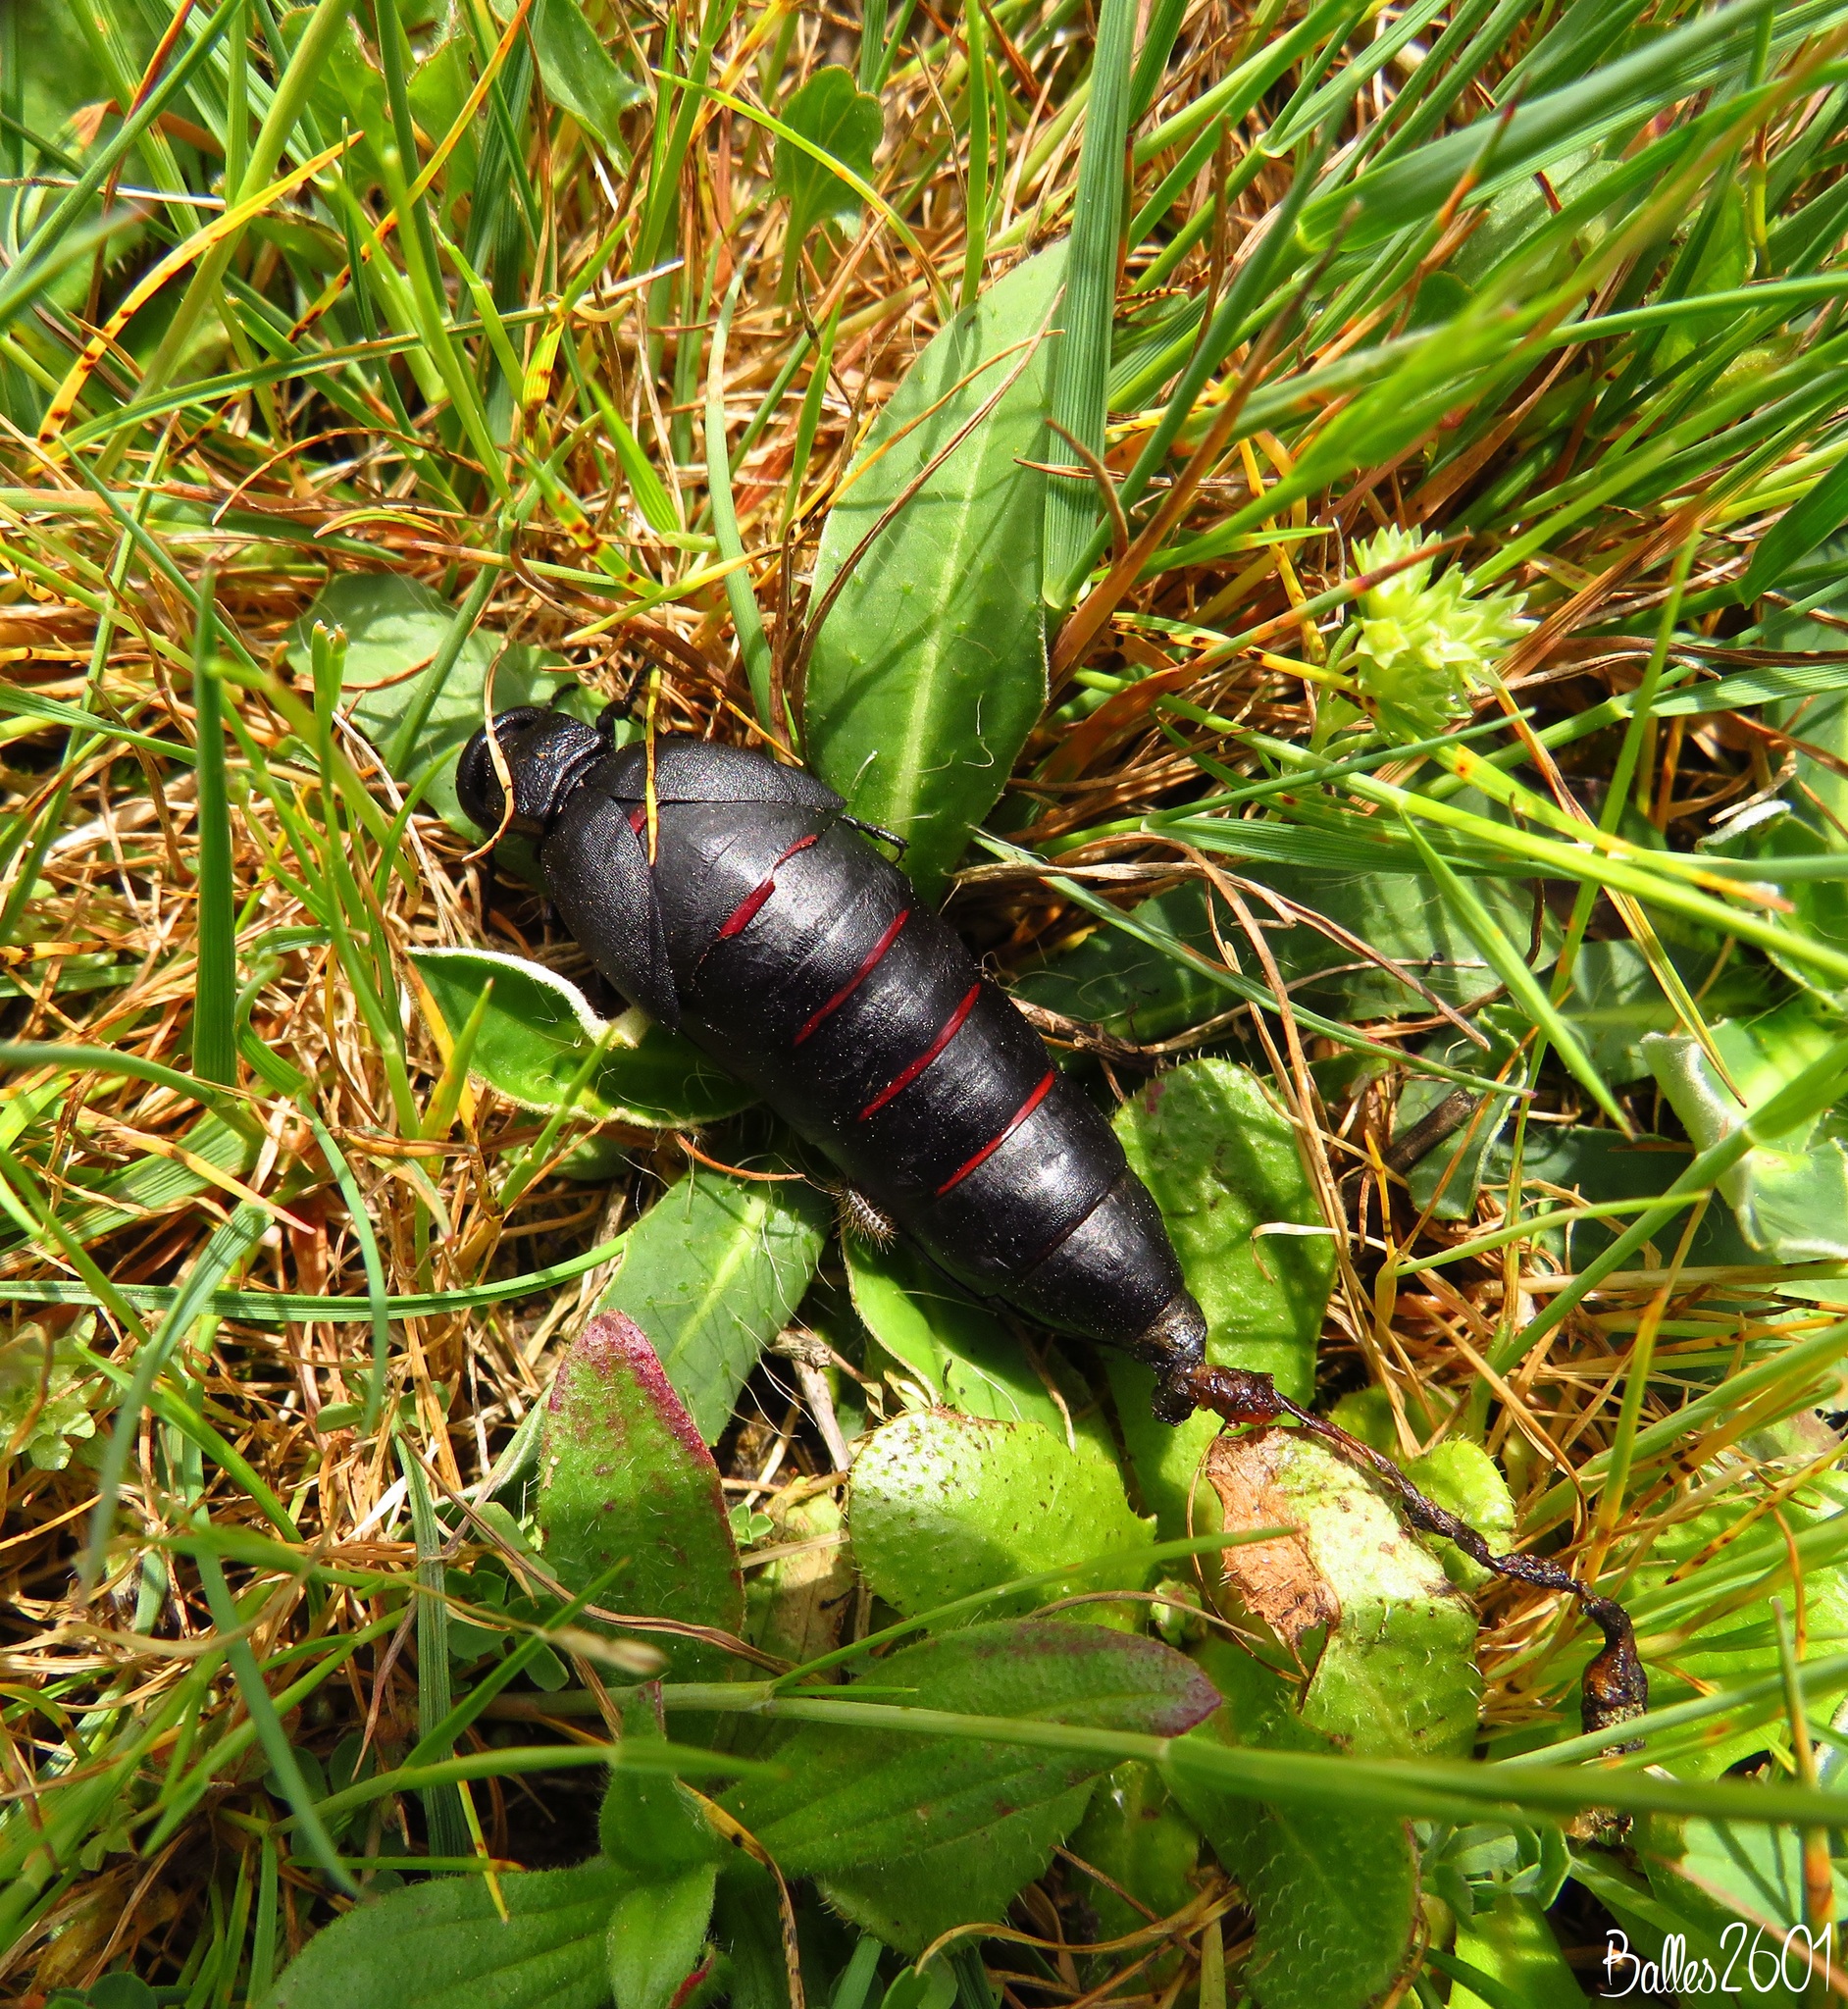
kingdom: Animalia
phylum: Arthropoda
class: Insecta
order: Coleoptera
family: Meloidae
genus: Berberomeloe
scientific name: Berberomeloe comunero
